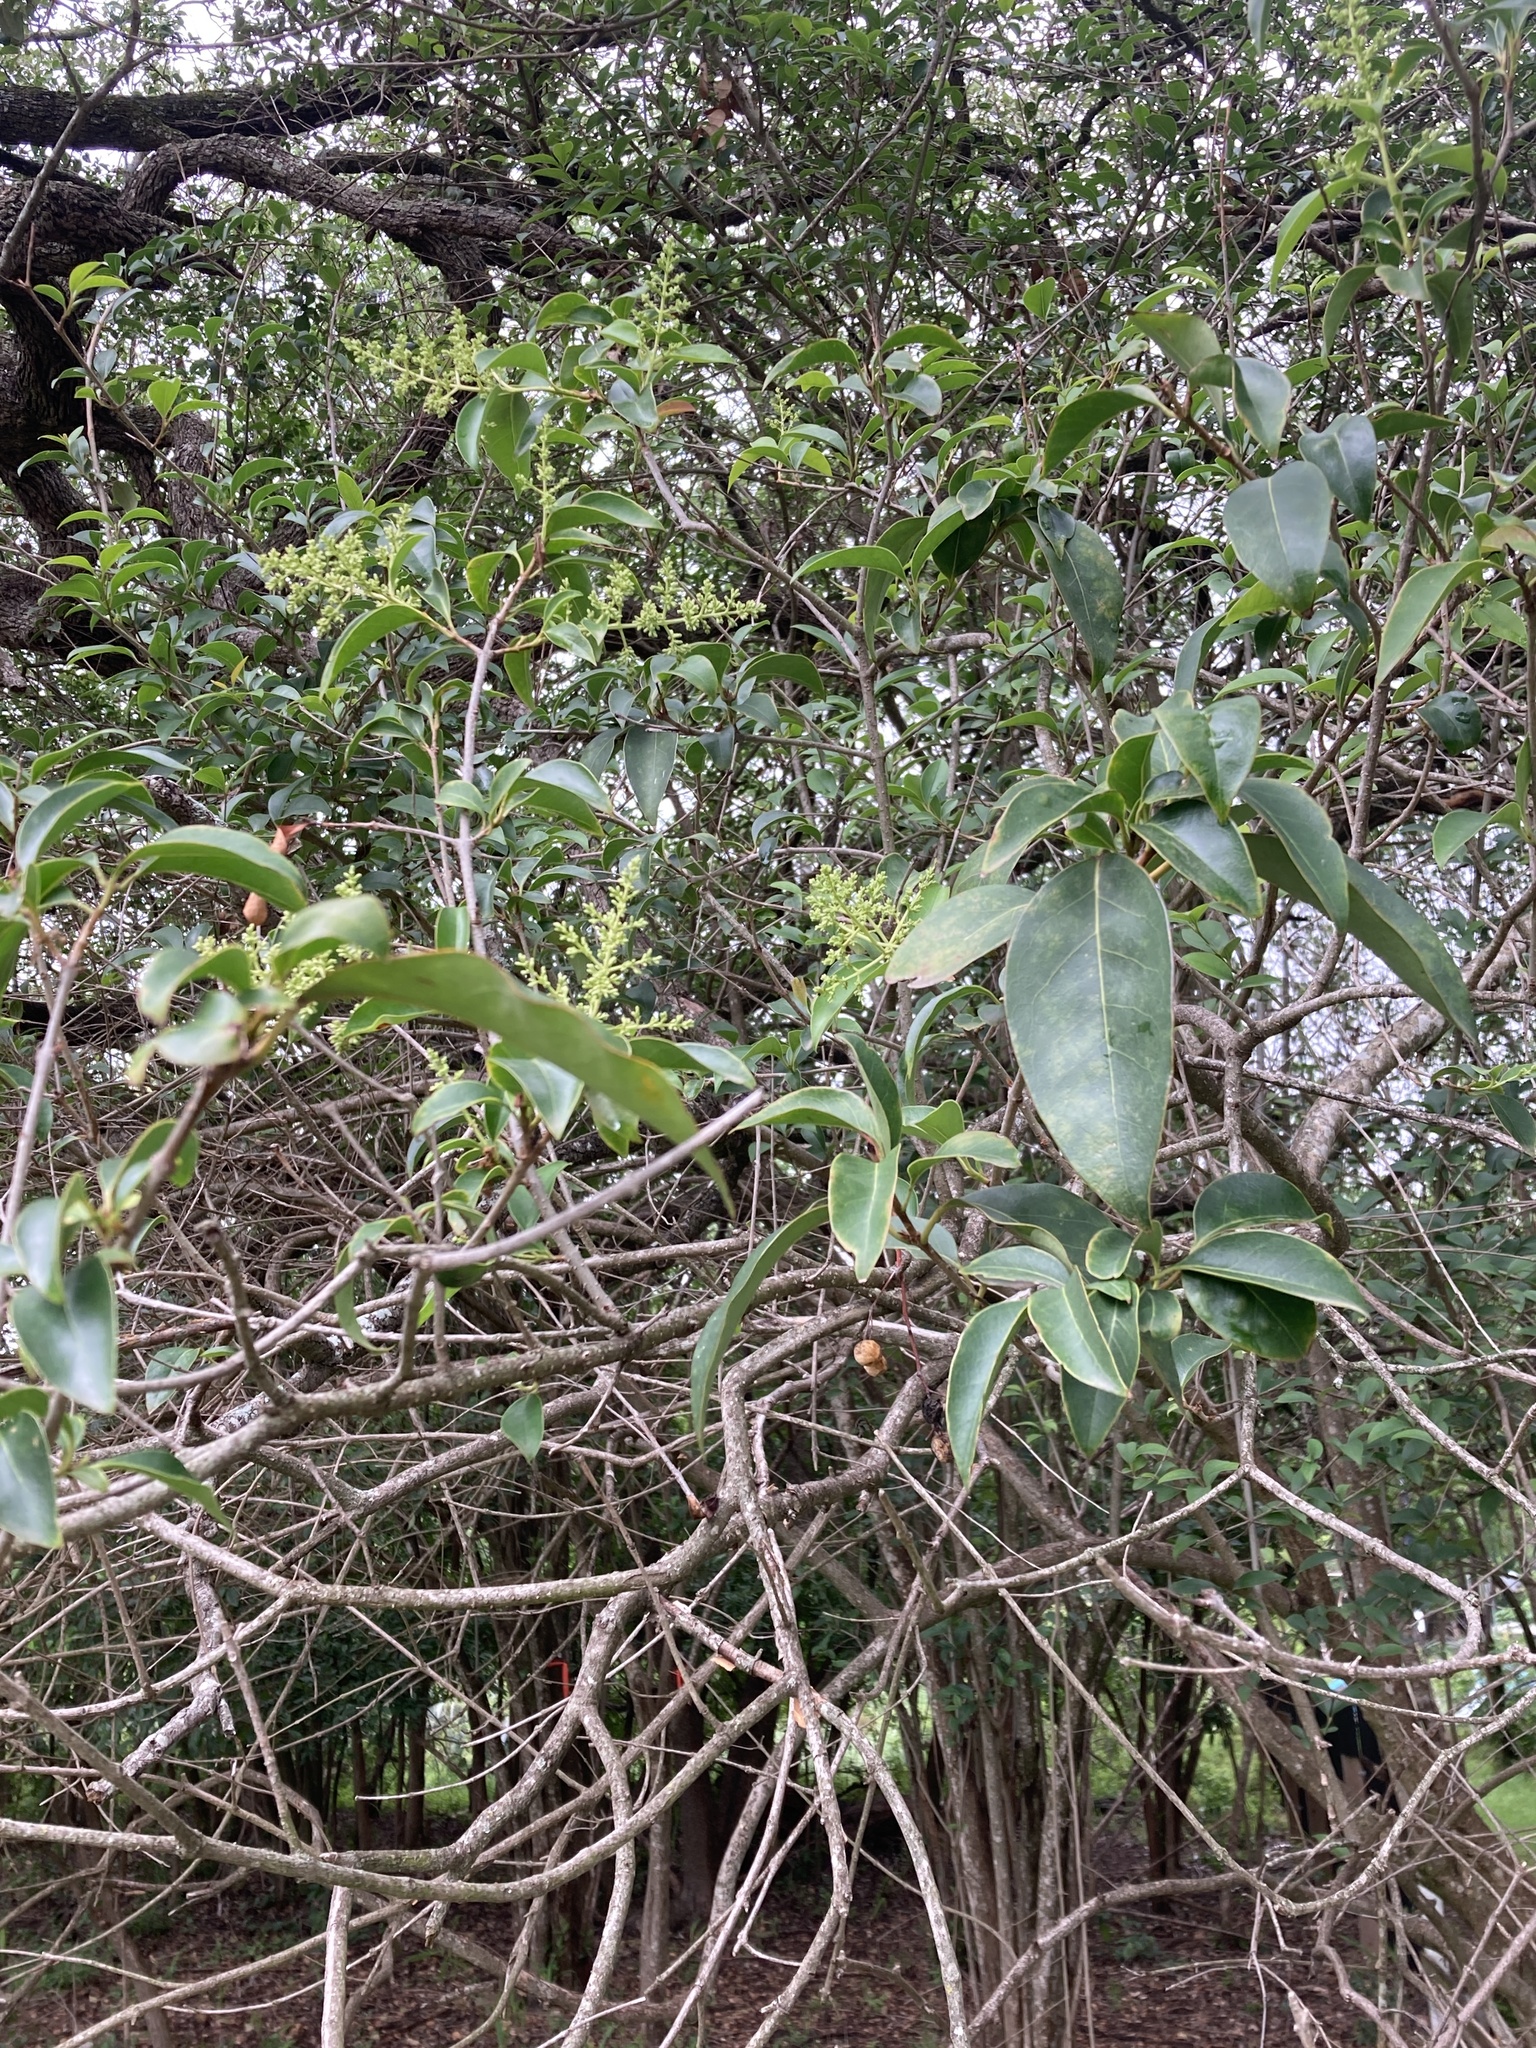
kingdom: Plantae
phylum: Tracheophyta
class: Magnoliopsida
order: Lamiales
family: Oleaceae
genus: Ligustrum
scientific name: Ligustrum lucidum
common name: Glossy privet
